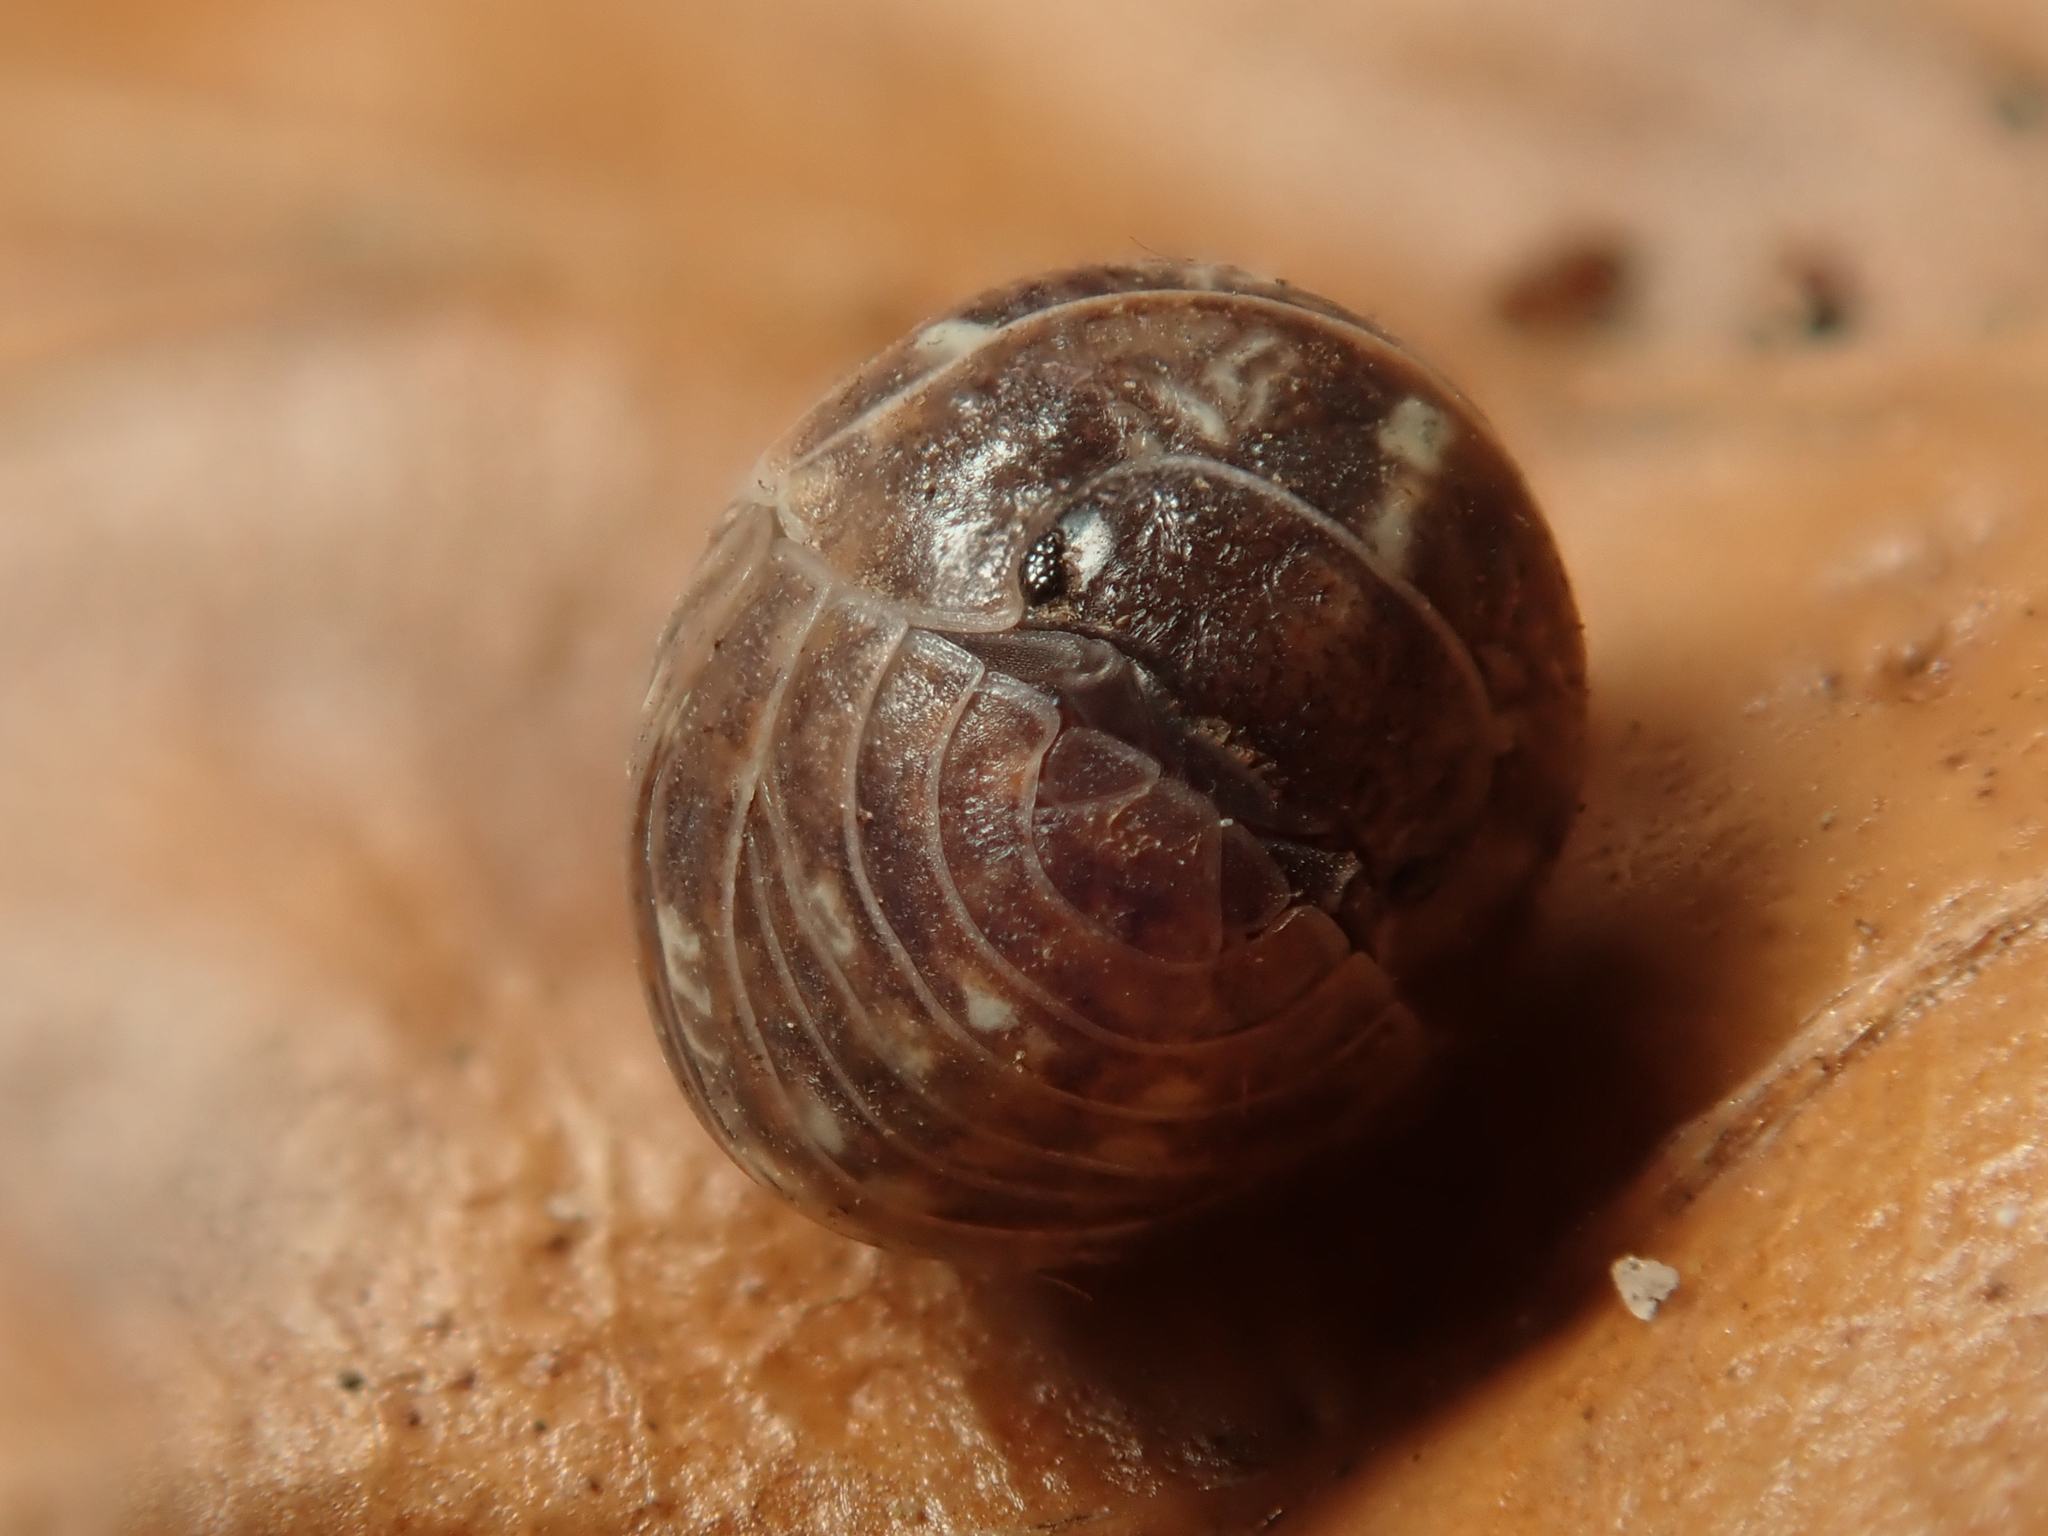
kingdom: Animalia
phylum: Arthropoda
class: Malacostraca
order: Isopoda
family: Armadillidiidae
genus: Armadillidium
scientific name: Armadillidium vulgare
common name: Common pill woodlouse
